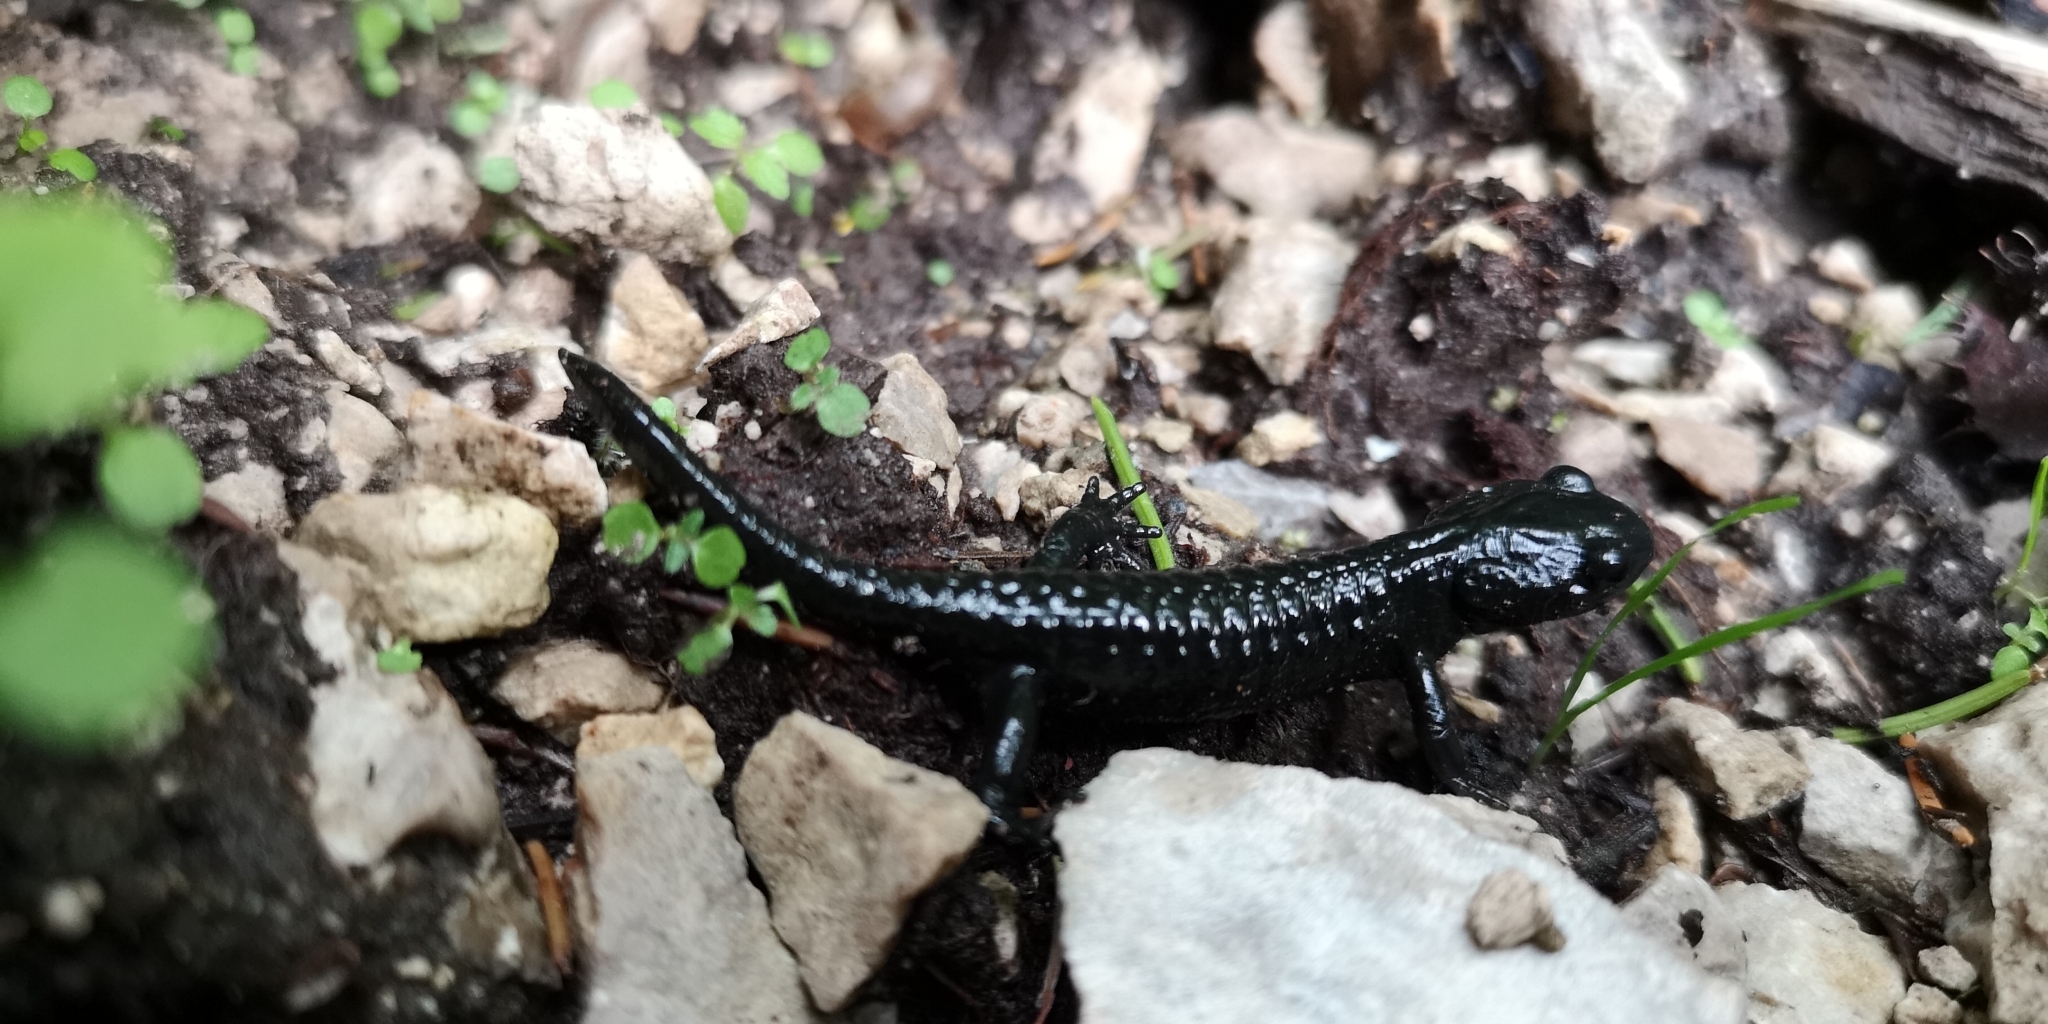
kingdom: Animalia
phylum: Chordata
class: Amphibia
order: Caudata
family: Salamandridae
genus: Salamandra
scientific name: Salamandra atra
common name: Alpine salamander
